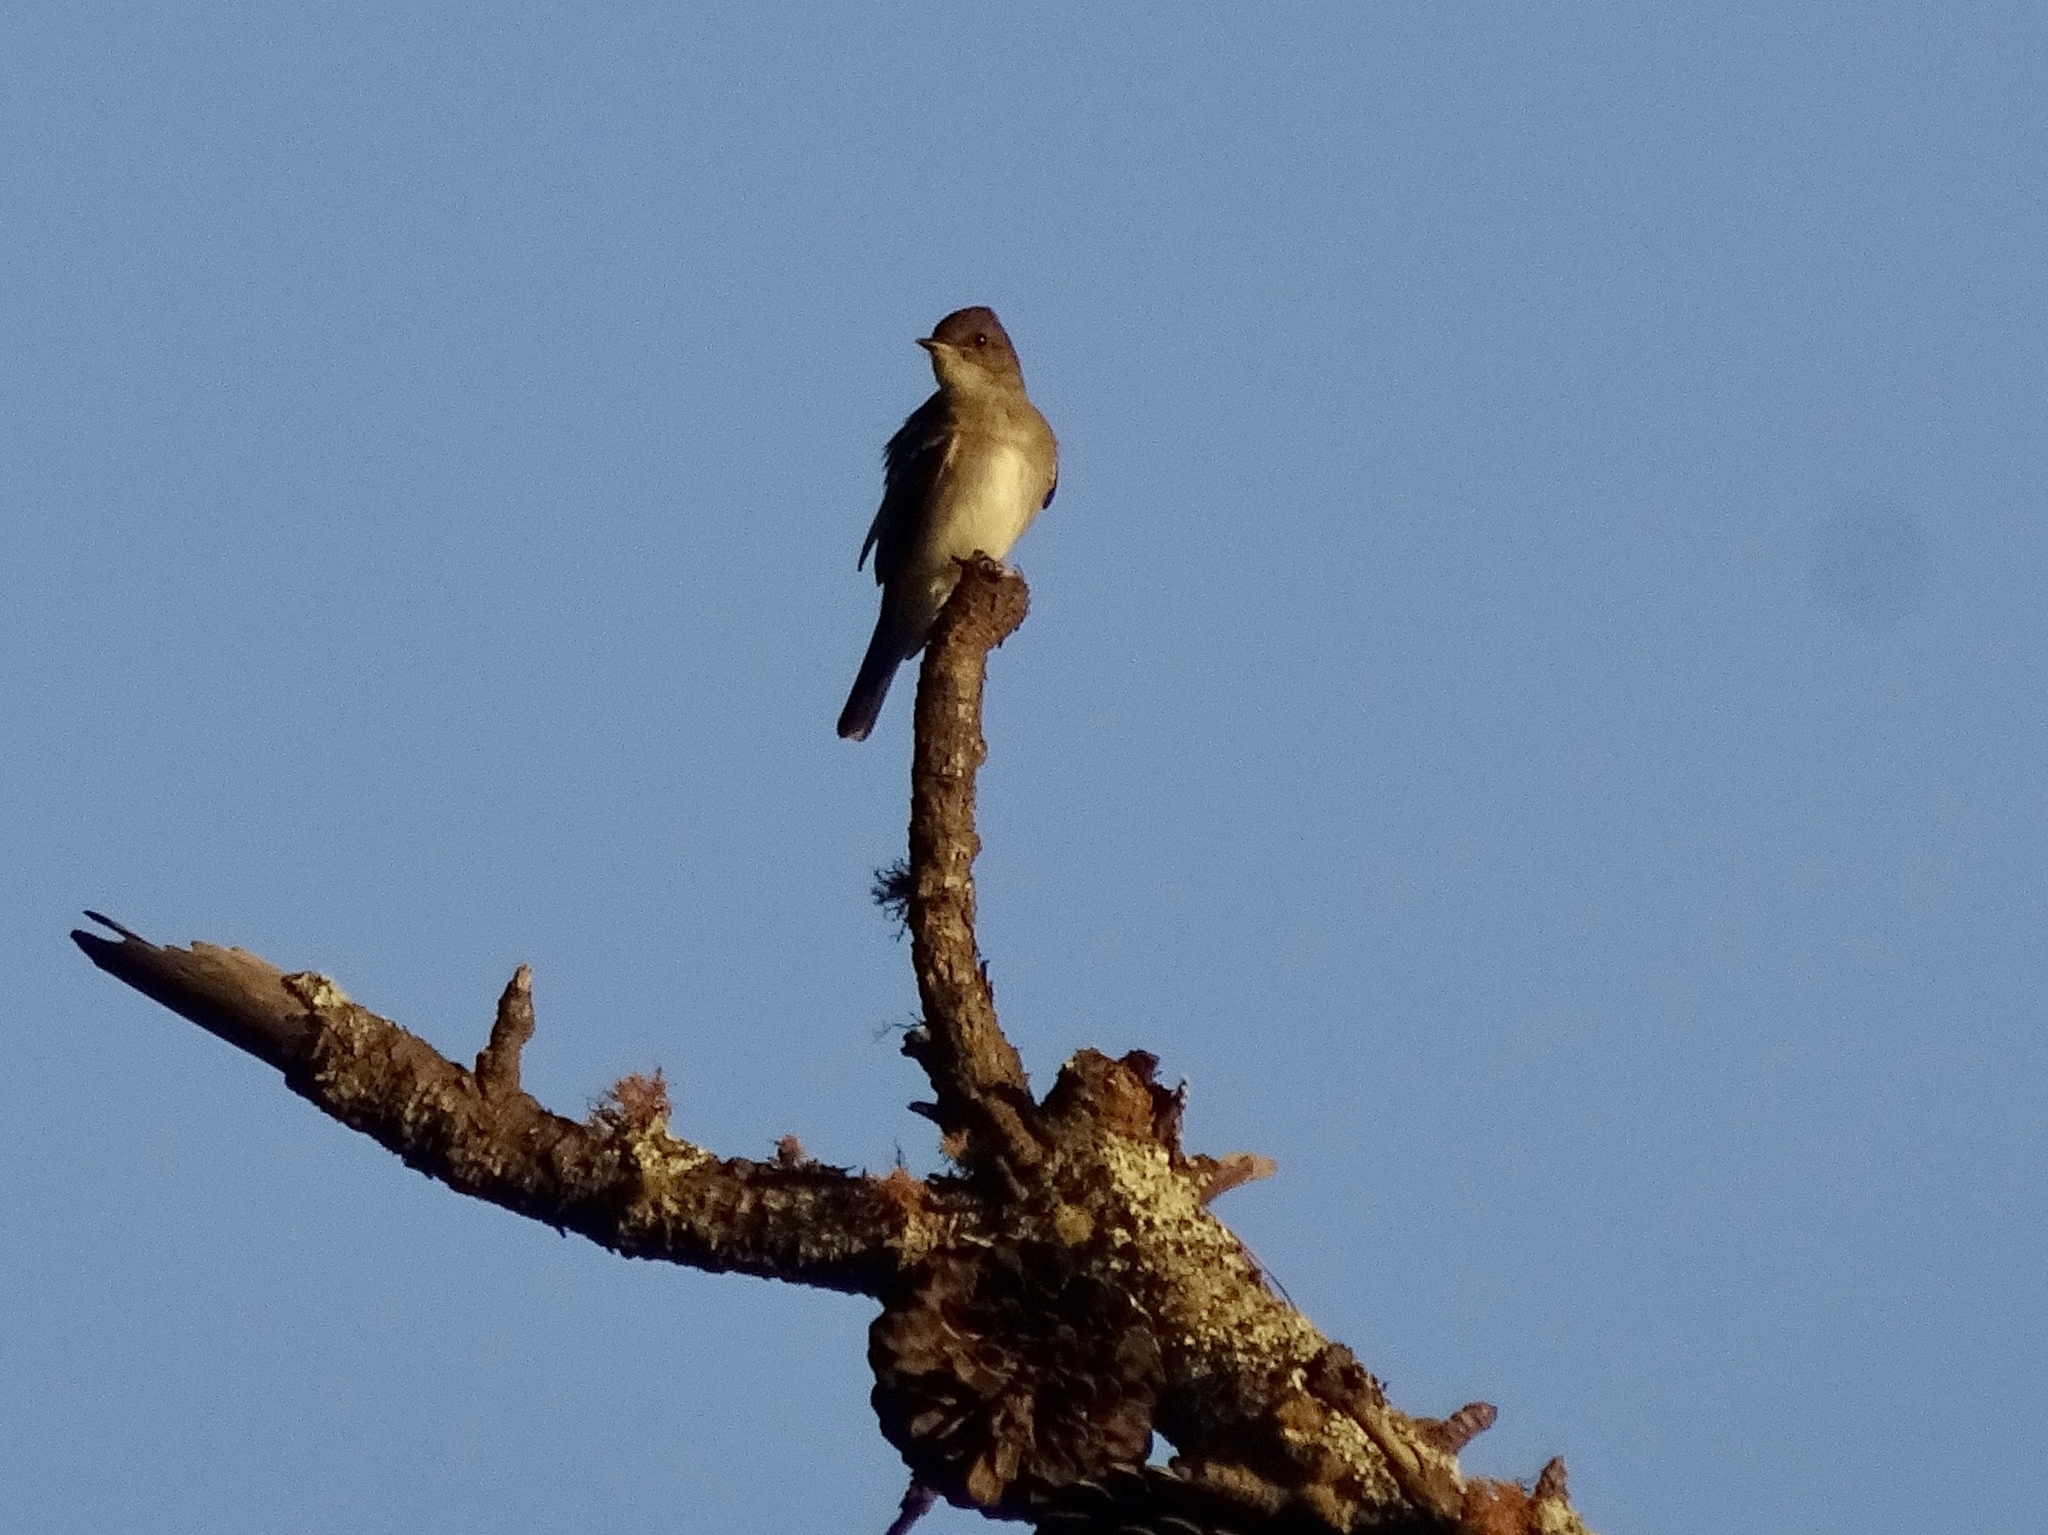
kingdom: Animalia
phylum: Chordata
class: Aves
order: Passeriformes
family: Tyrannidae
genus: Contopus
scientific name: Contopus sordidulus
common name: Western wood-pewee
